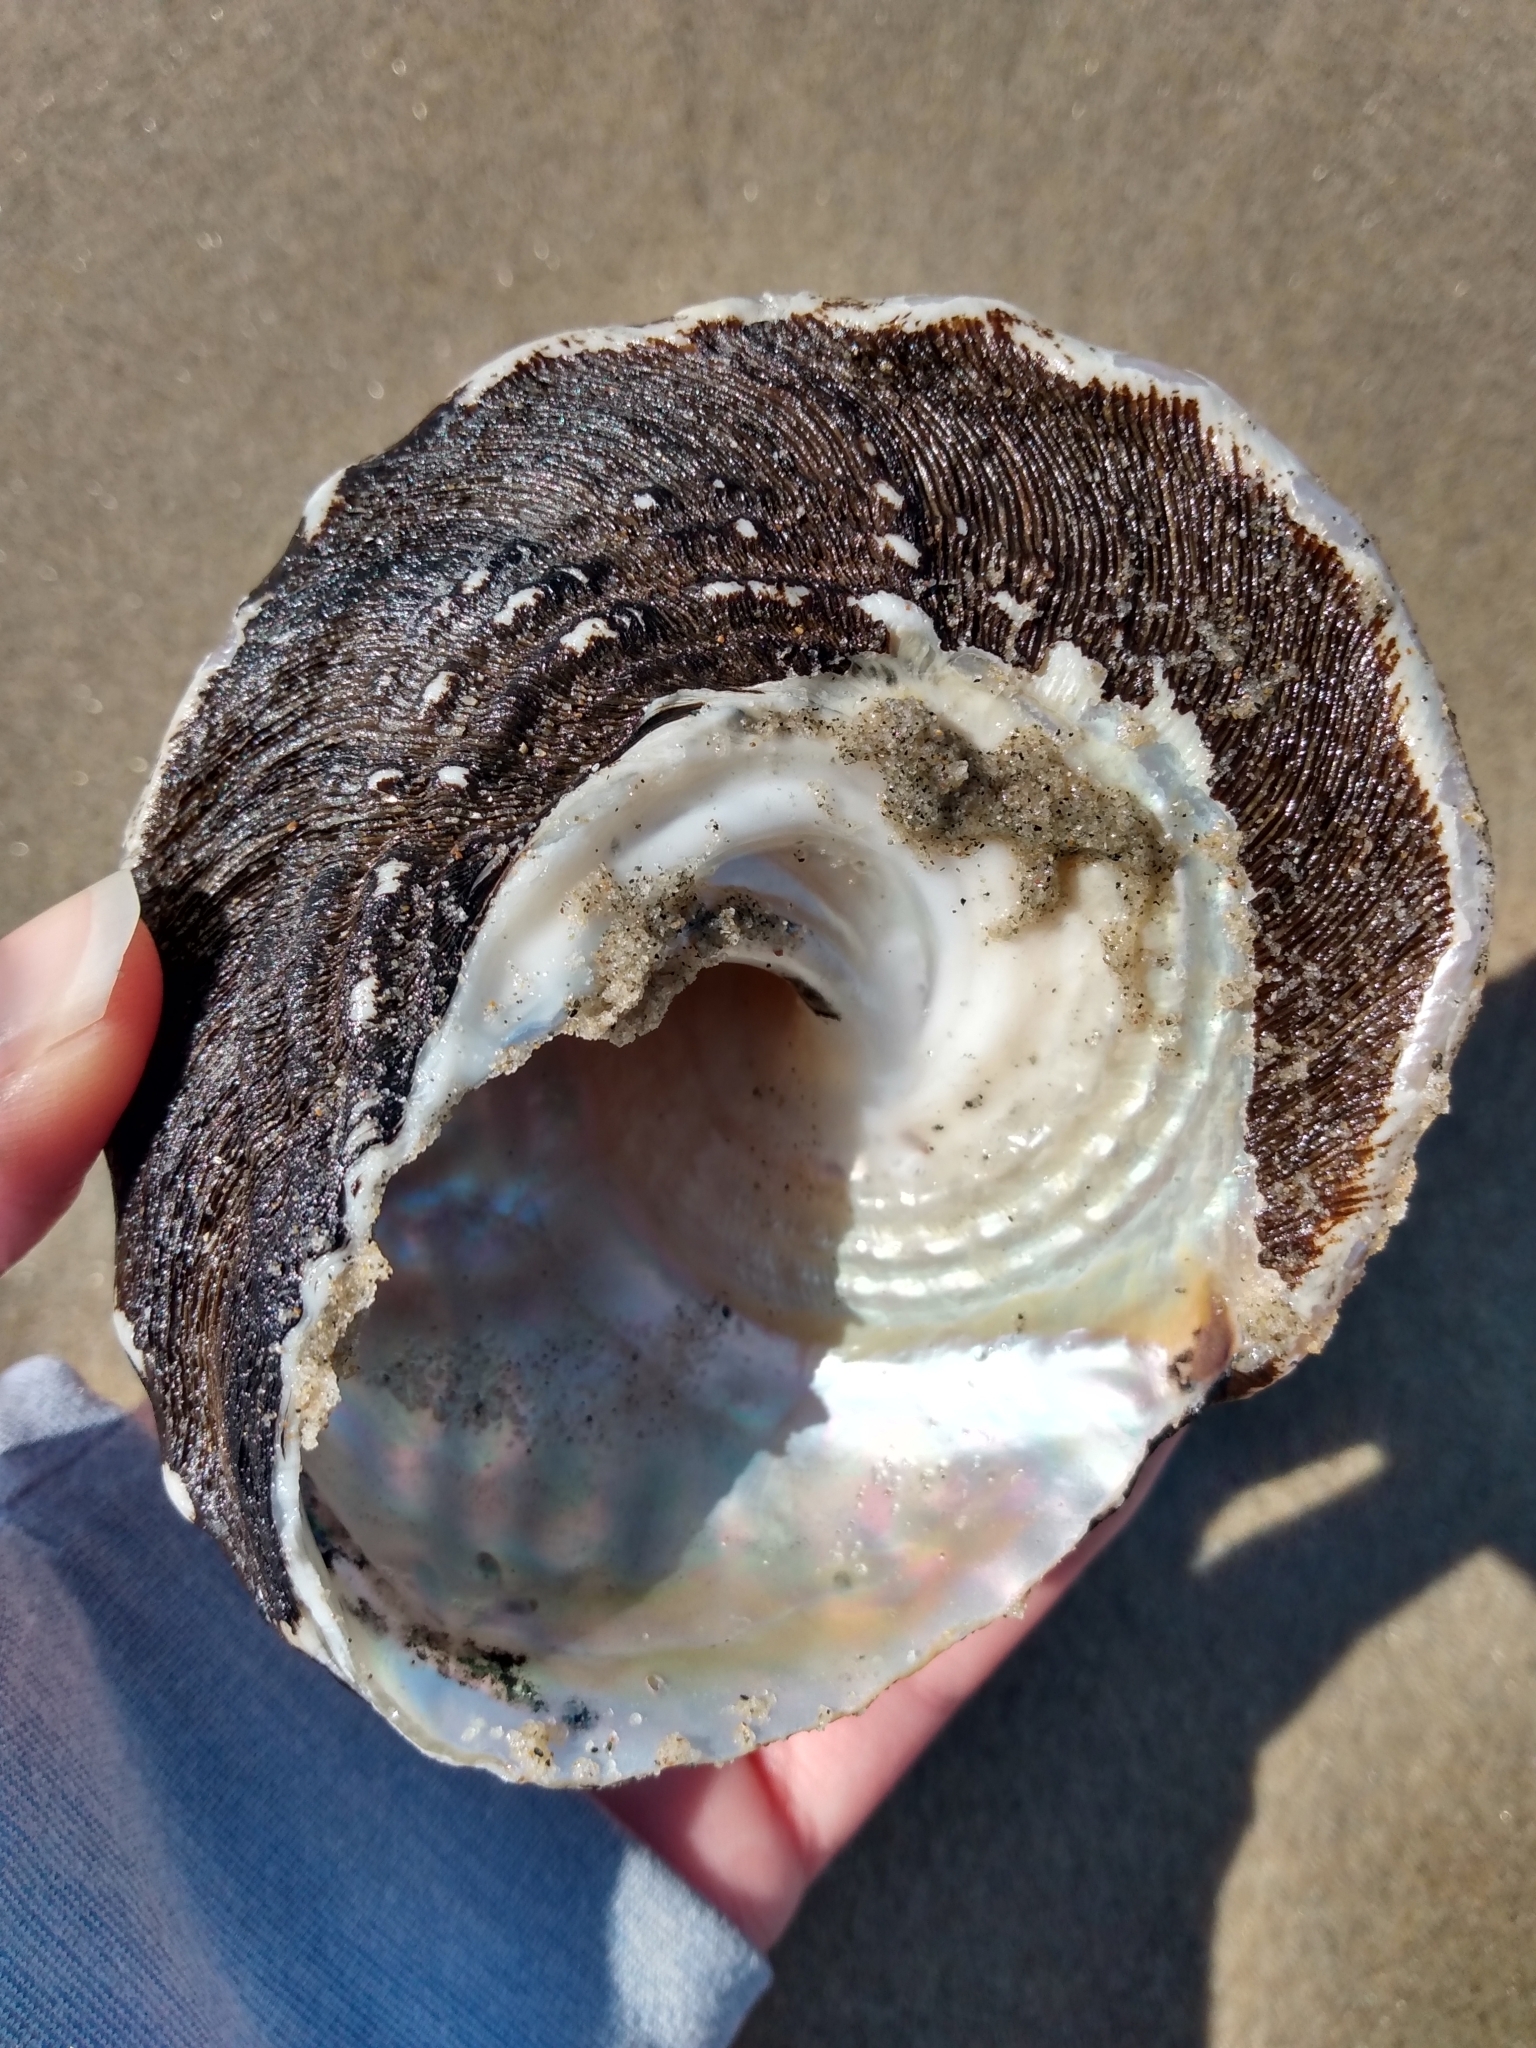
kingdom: Animalia
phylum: Mollusca
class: Gastropoda
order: Trochida
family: Turbinidae
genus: Megastraea
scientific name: Megastraea undosa
